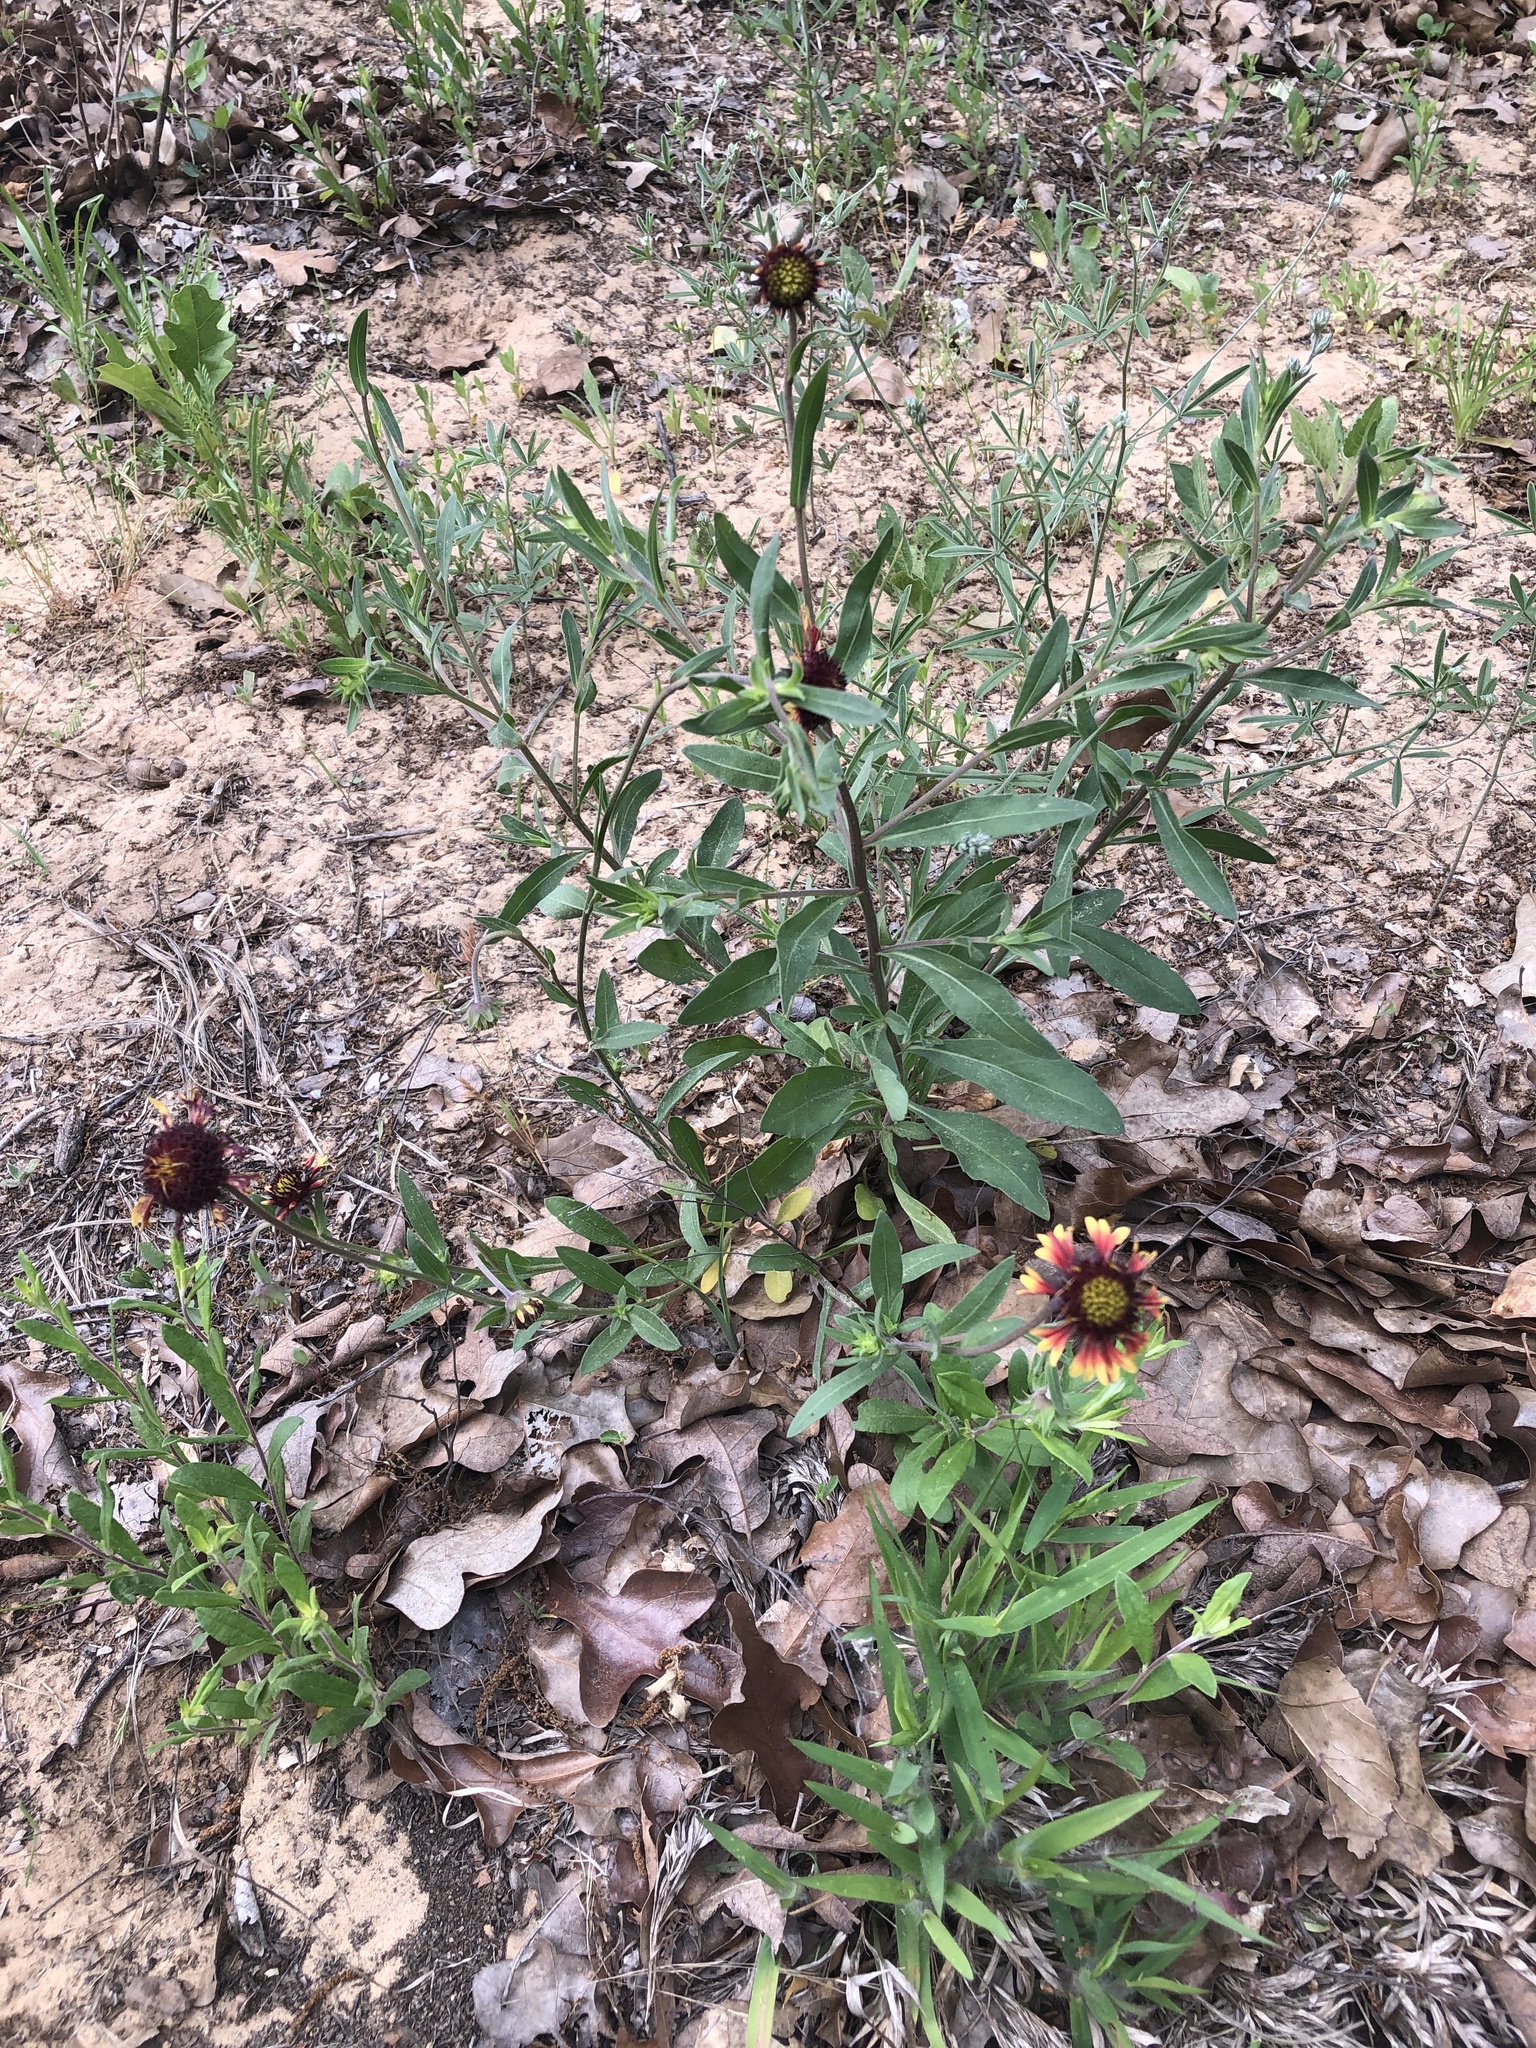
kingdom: Plantae
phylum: Tracheophyta
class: Magnoliopsida
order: Asterales
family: Asteraceae
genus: Gaillardia
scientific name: Gaillardia aestivalis
